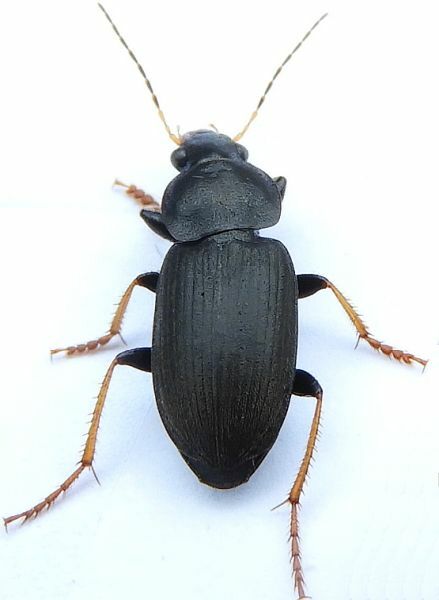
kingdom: Animalia
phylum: Arthropoda
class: Insecta
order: Coleoptera
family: Carabidae
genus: Amphasia
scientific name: Amphasia sericea
